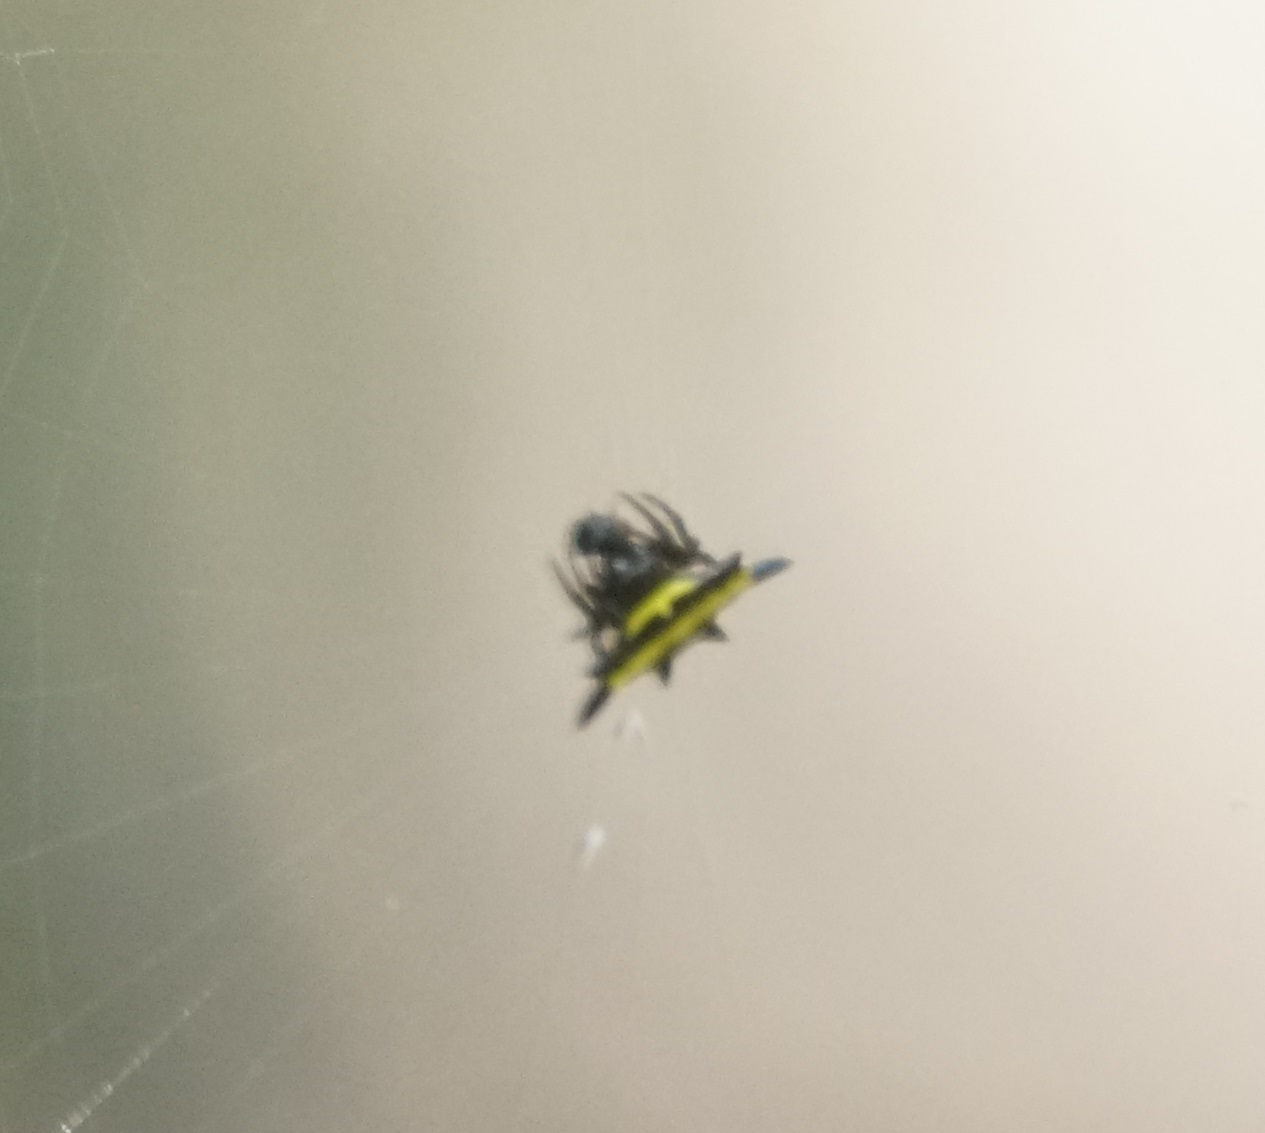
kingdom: Animalia
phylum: Arthropoda
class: Arachnida
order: Araneae
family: Araneidae
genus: Gasteracantha
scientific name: Gasteracantha fornicata
